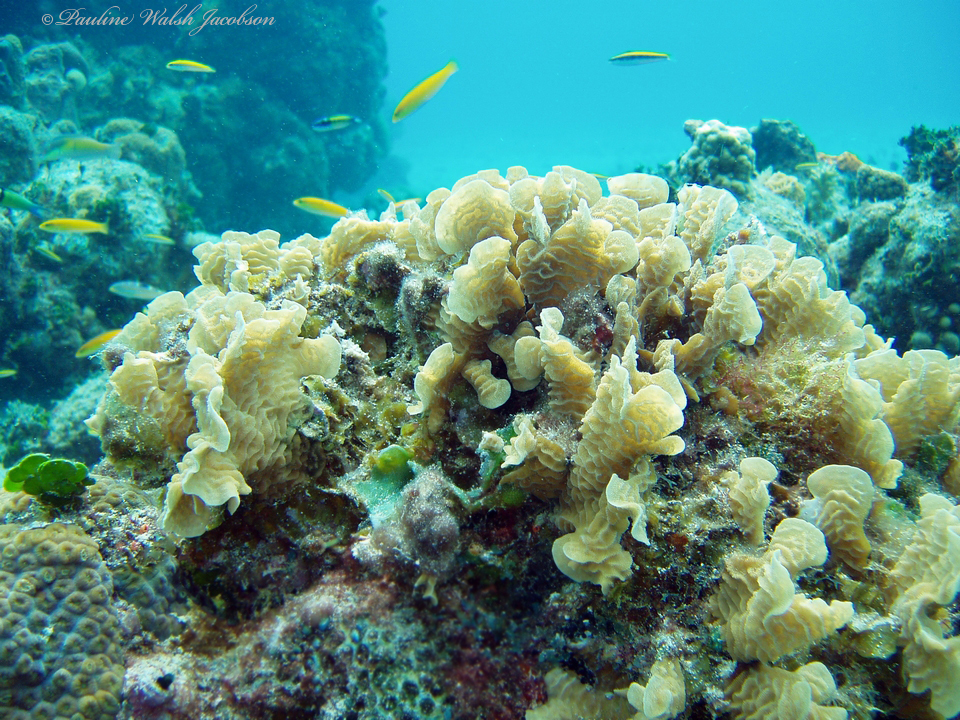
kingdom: Animalia
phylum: Cnidaria
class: Anthozoa
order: Scleractinia
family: Agariciidae
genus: Agaricia
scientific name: Agaricia tenuifolia
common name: Thin leaf lettuce coral
